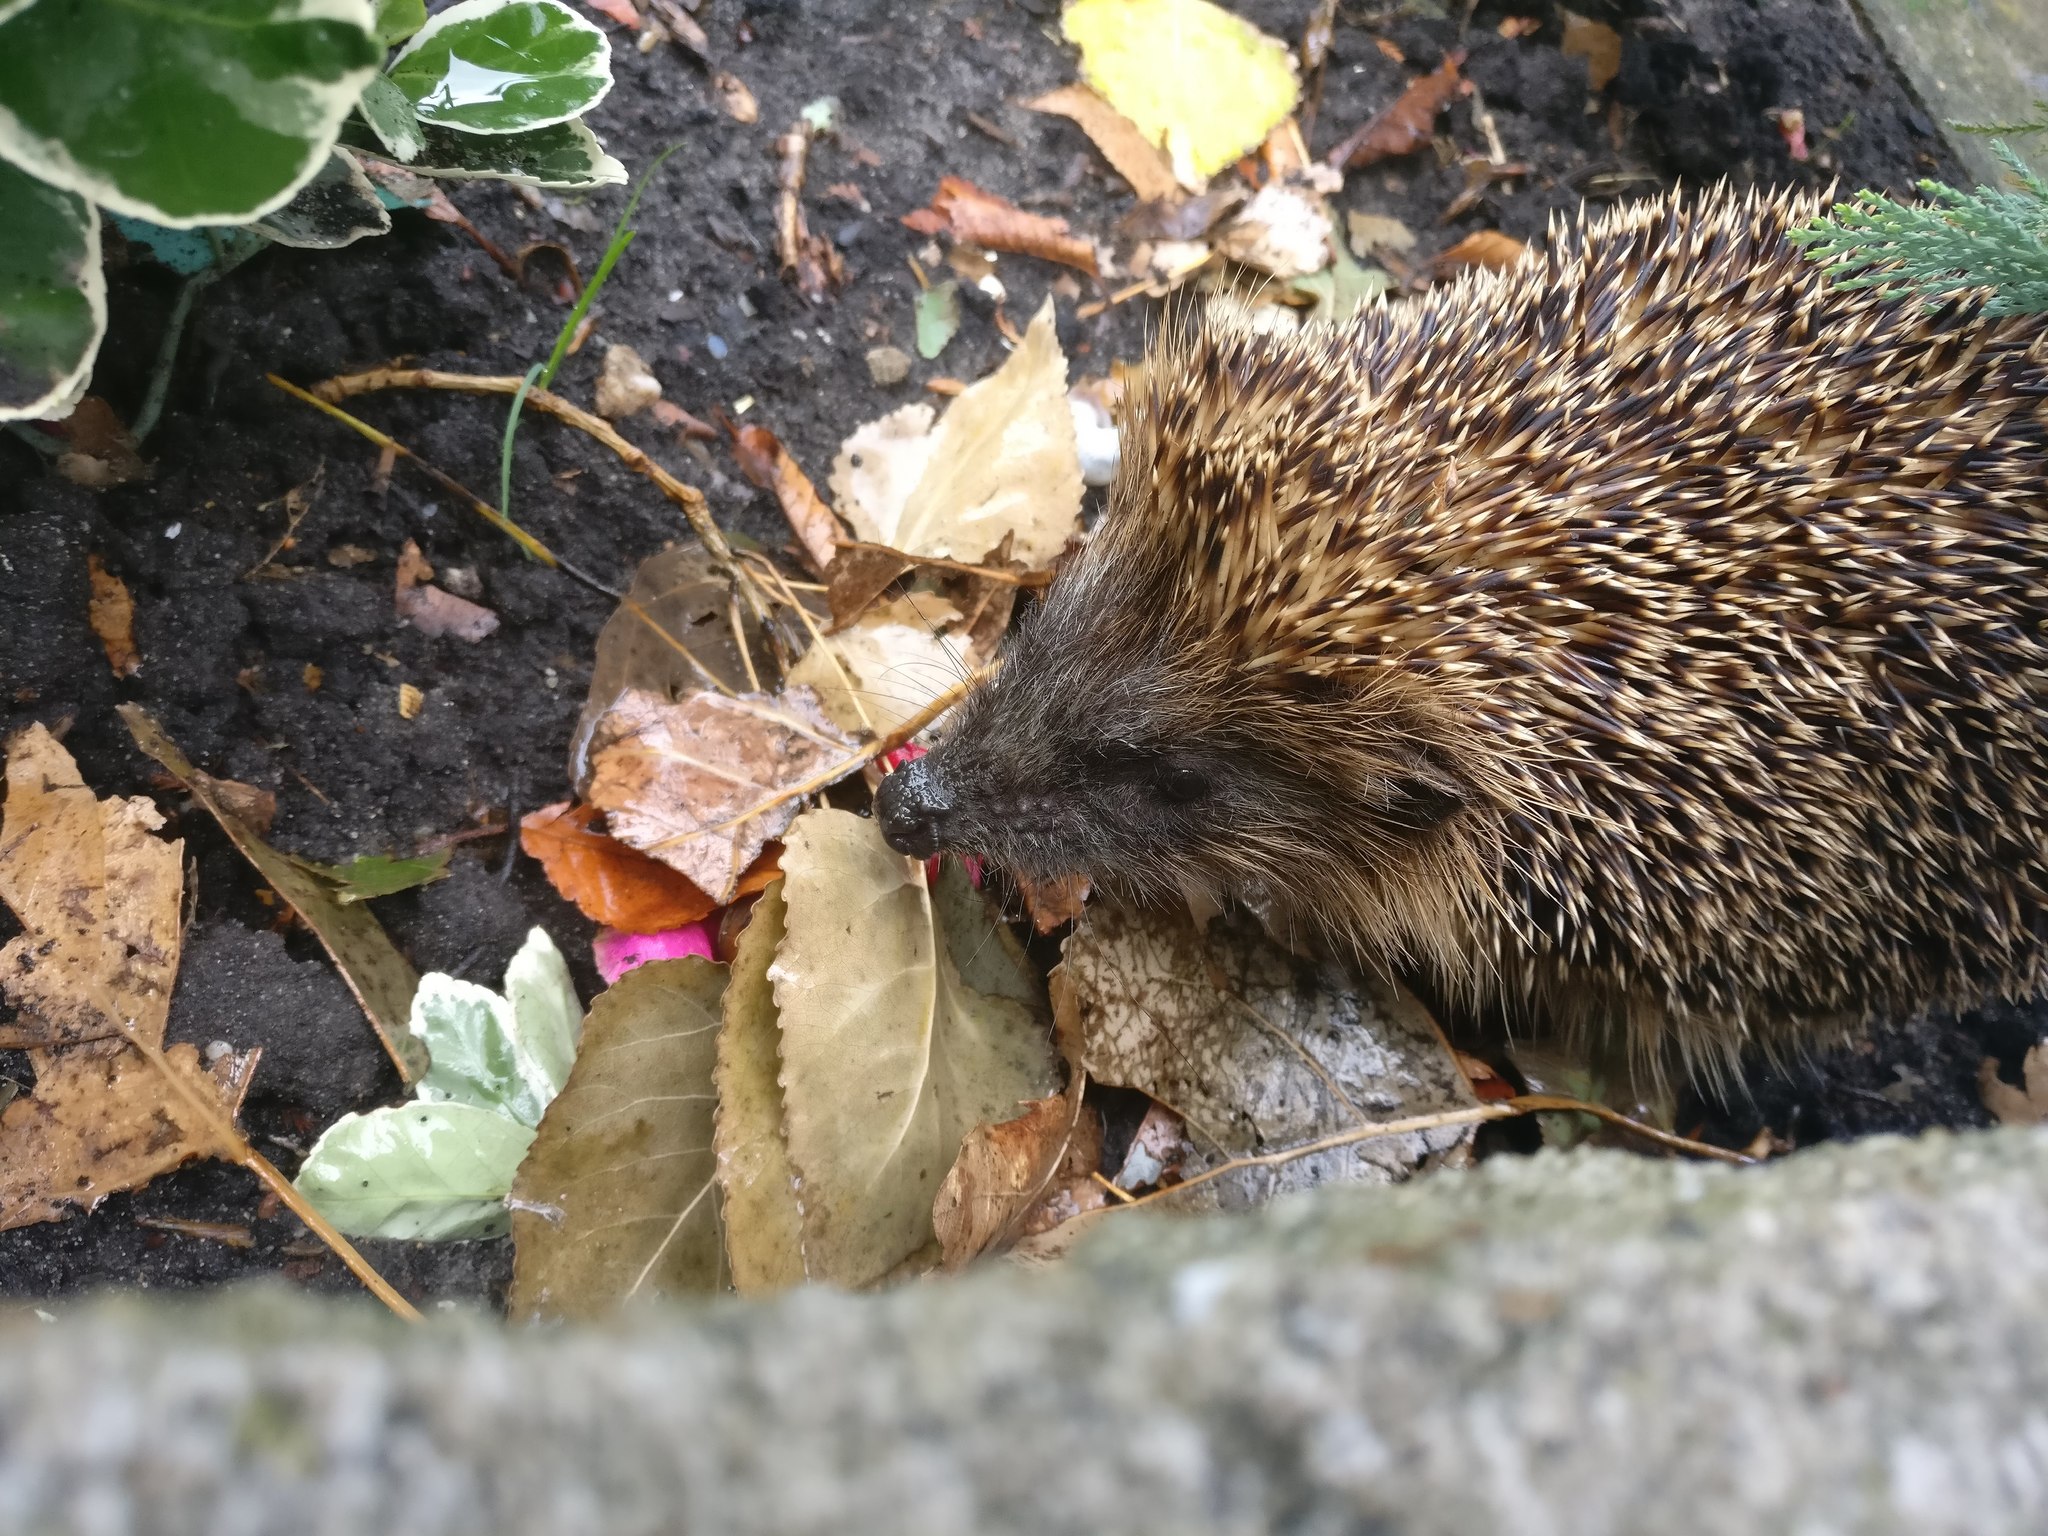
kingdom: Animalia
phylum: Chordata
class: Mammalia
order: Erinaceomorpha
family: Erinaceidae
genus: Erinaceus
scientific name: Erinaceus europaeus
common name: West european hedgehog
